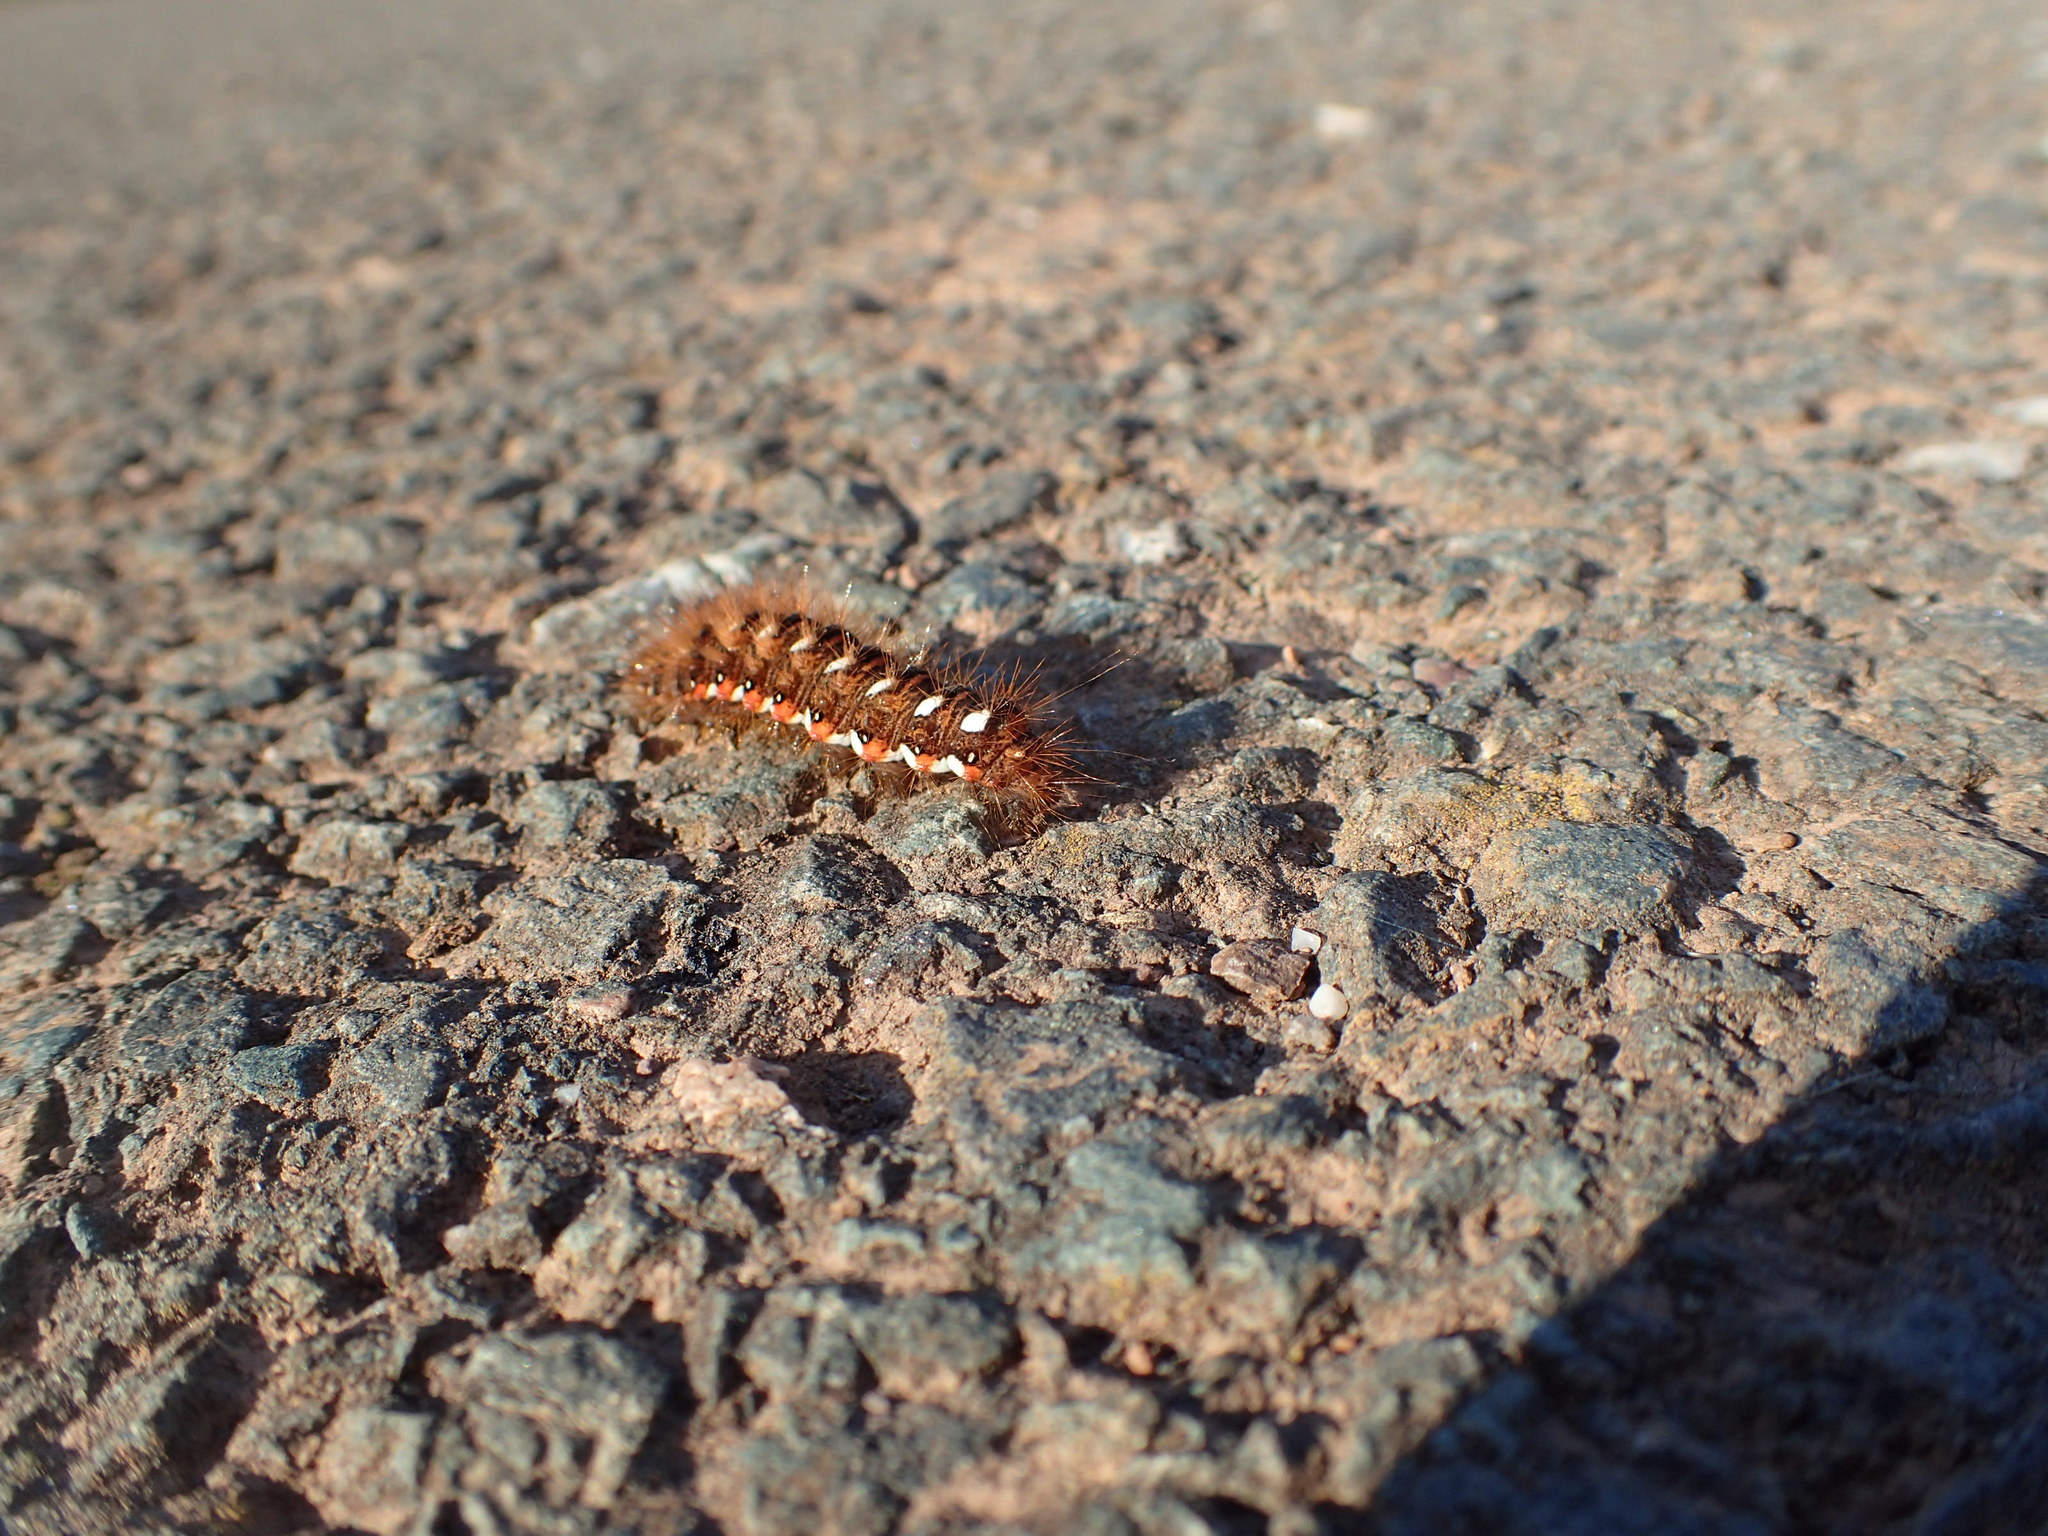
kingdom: Animalia
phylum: Arthropoda
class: Insecta
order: Lepidoptera
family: Noctuidae
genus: Acronicta
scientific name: Acronicta rumicis
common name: Knot grass
